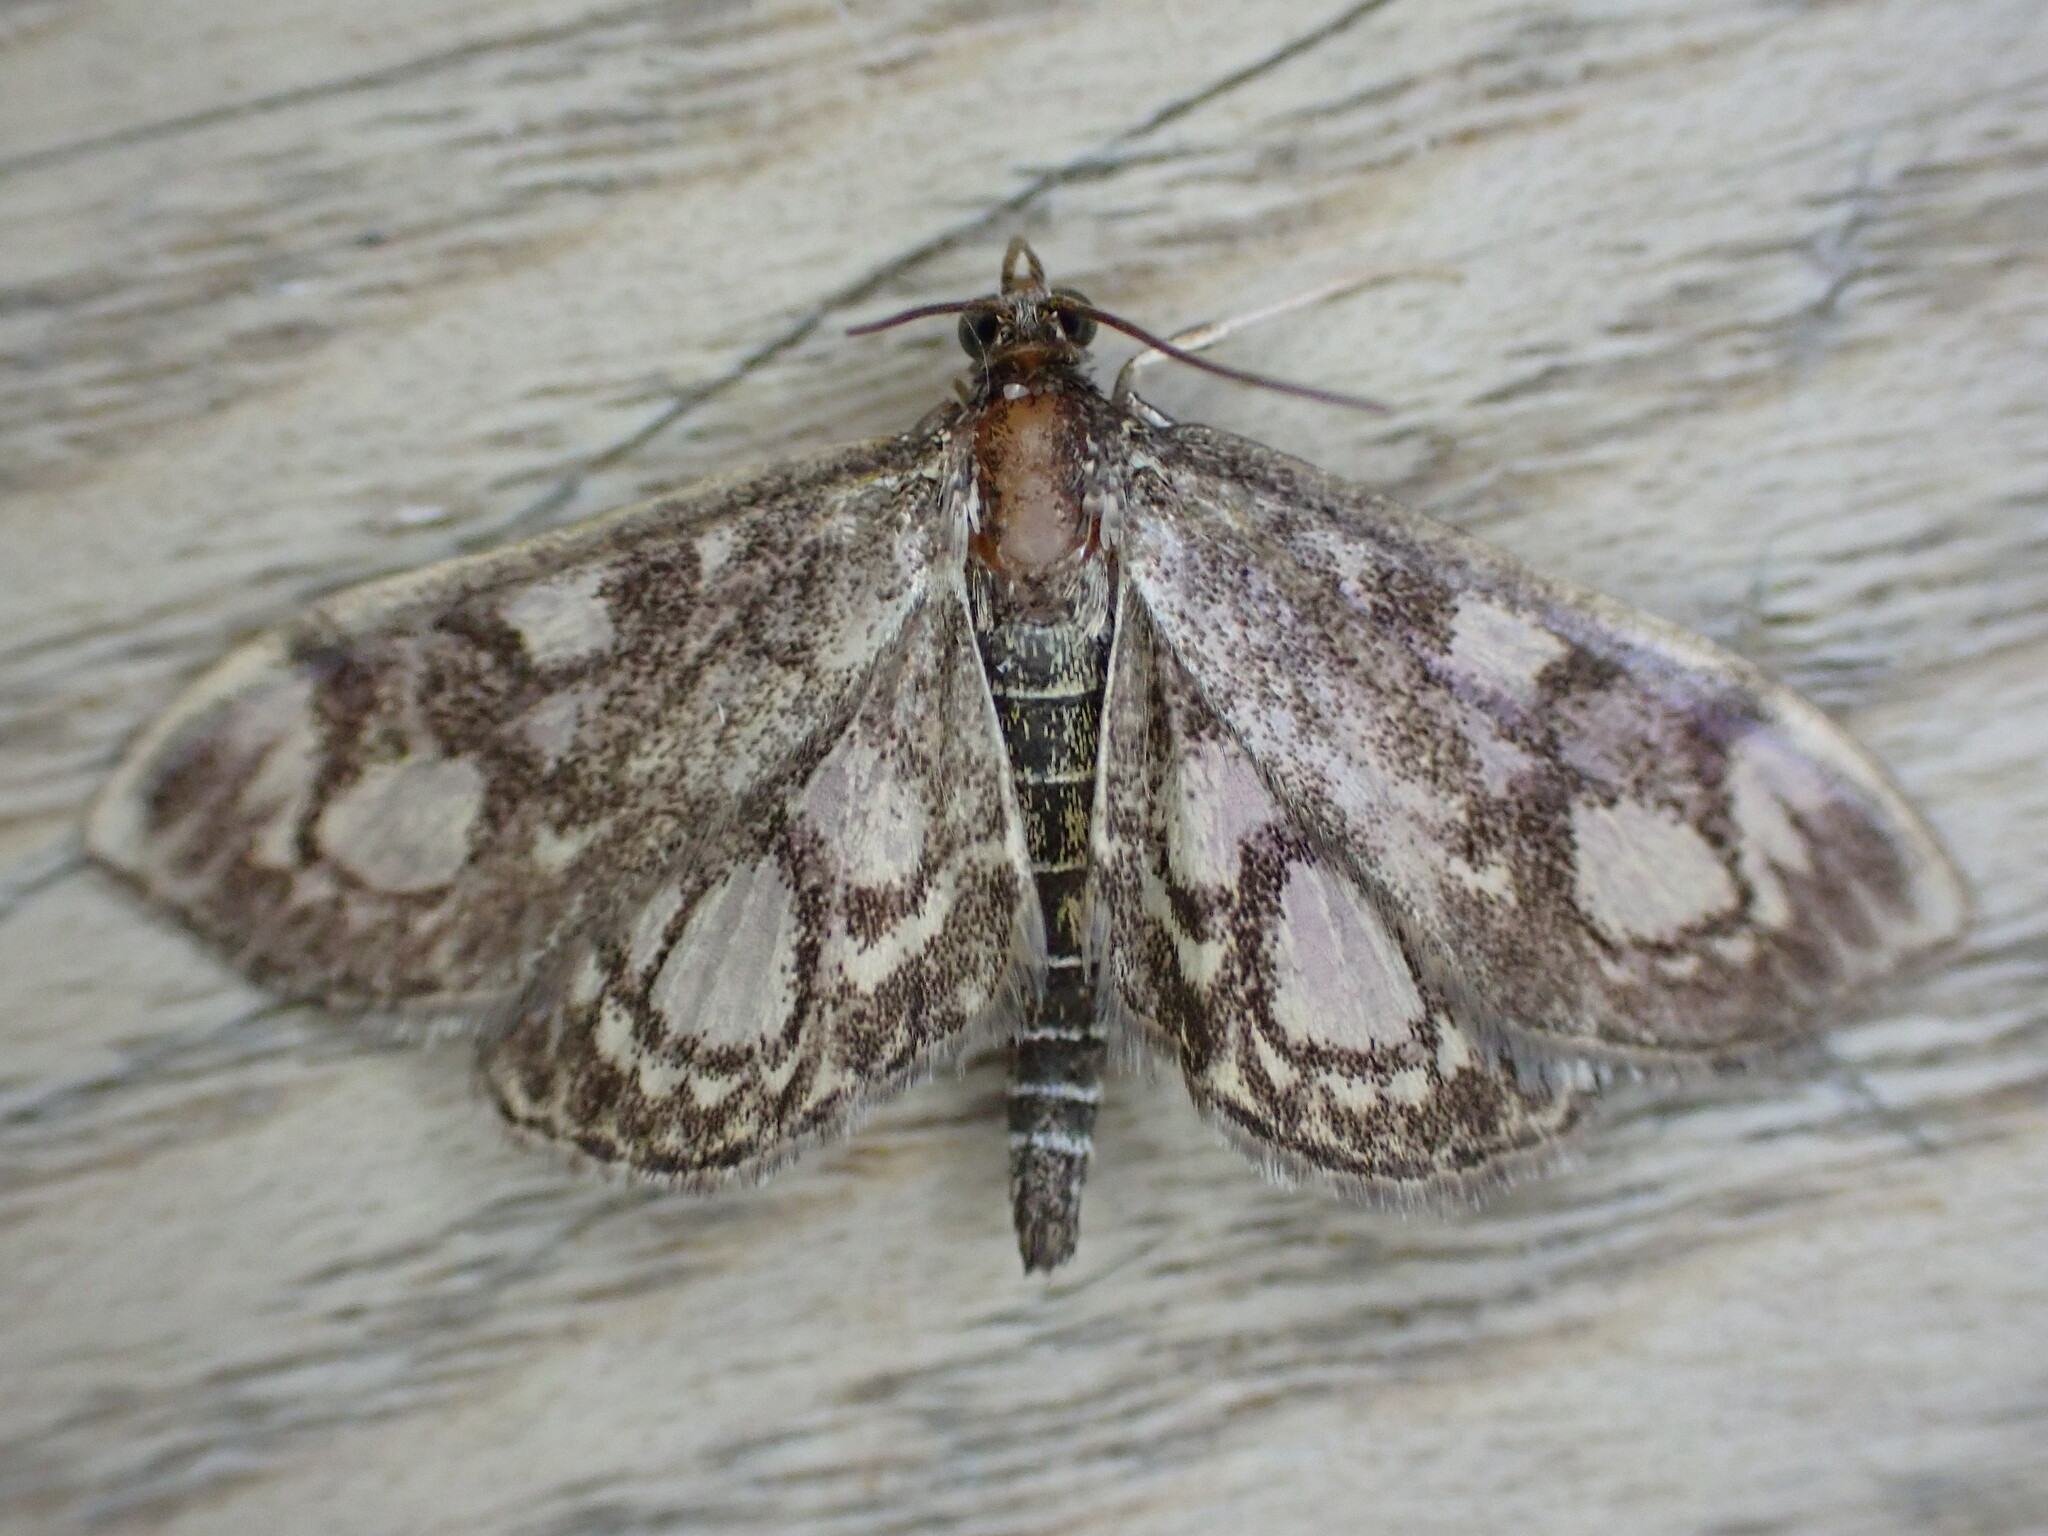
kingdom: Animalia
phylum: Arthropoda
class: Insecta
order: Lepidoptera
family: Crambidae
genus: Anania
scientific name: Anania coronata
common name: Elder pearl
